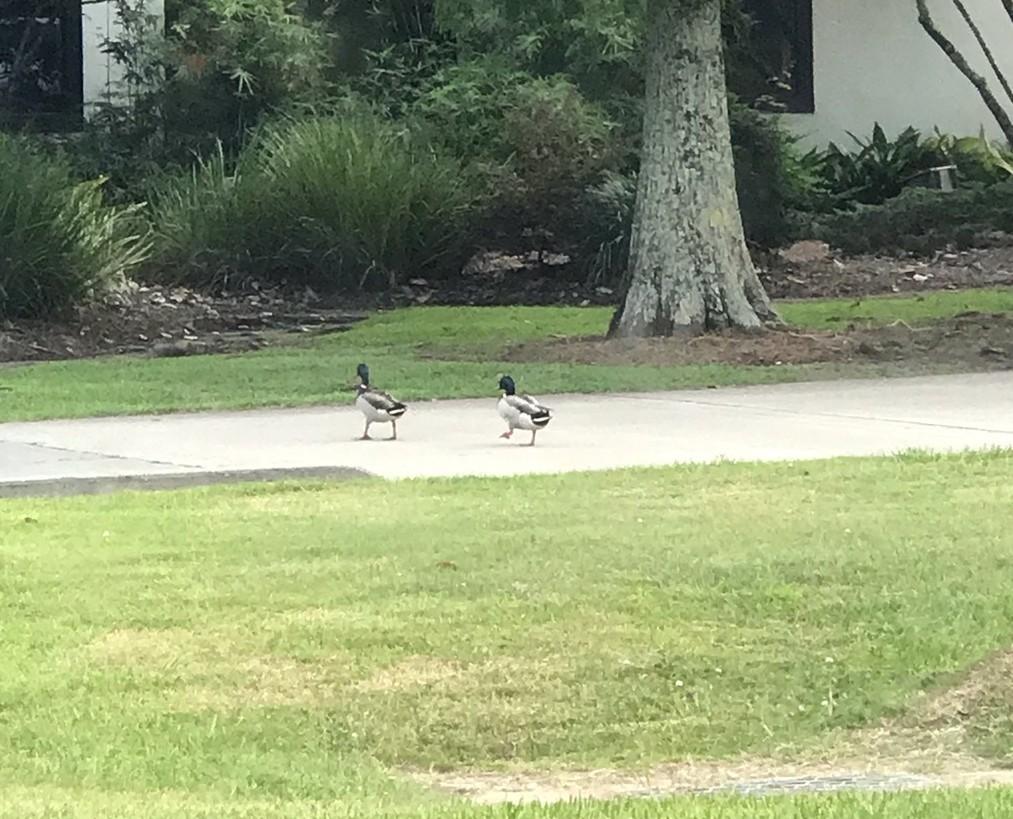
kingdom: Animalia
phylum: Chordata
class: Aves
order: Anseriformes
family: Anatidae
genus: Anas
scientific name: Anas platyrhynchos
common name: Mallard
